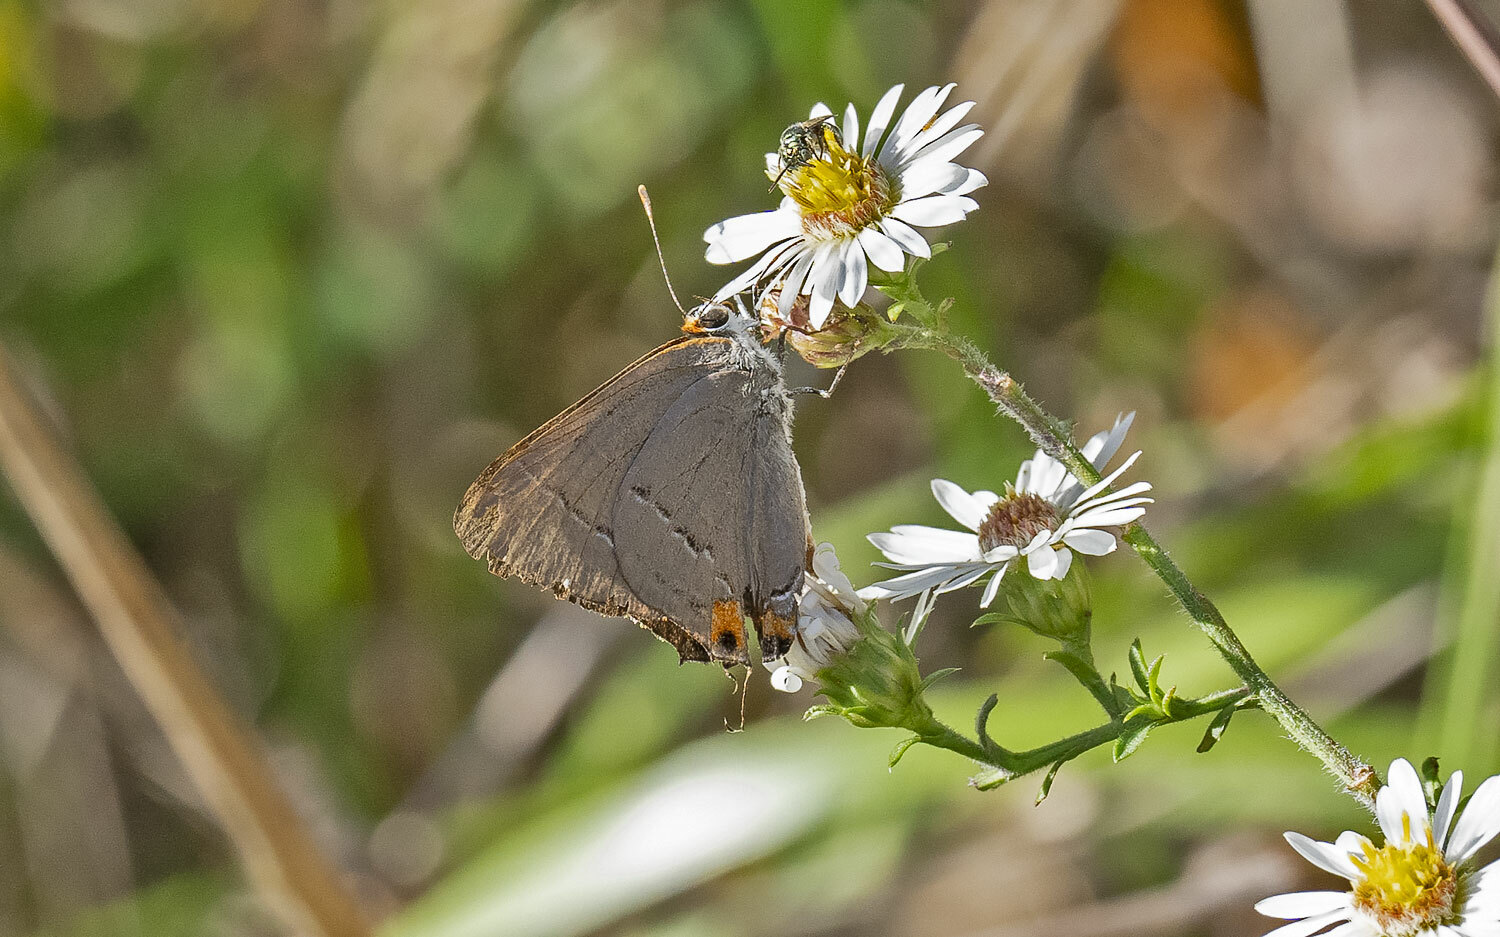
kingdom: Animalia
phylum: Arthropoda
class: Insecta
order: Lepidoptera
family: Lycaenidae
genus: Strymon
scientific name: Strymon melinus
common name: Gray hairstreak
